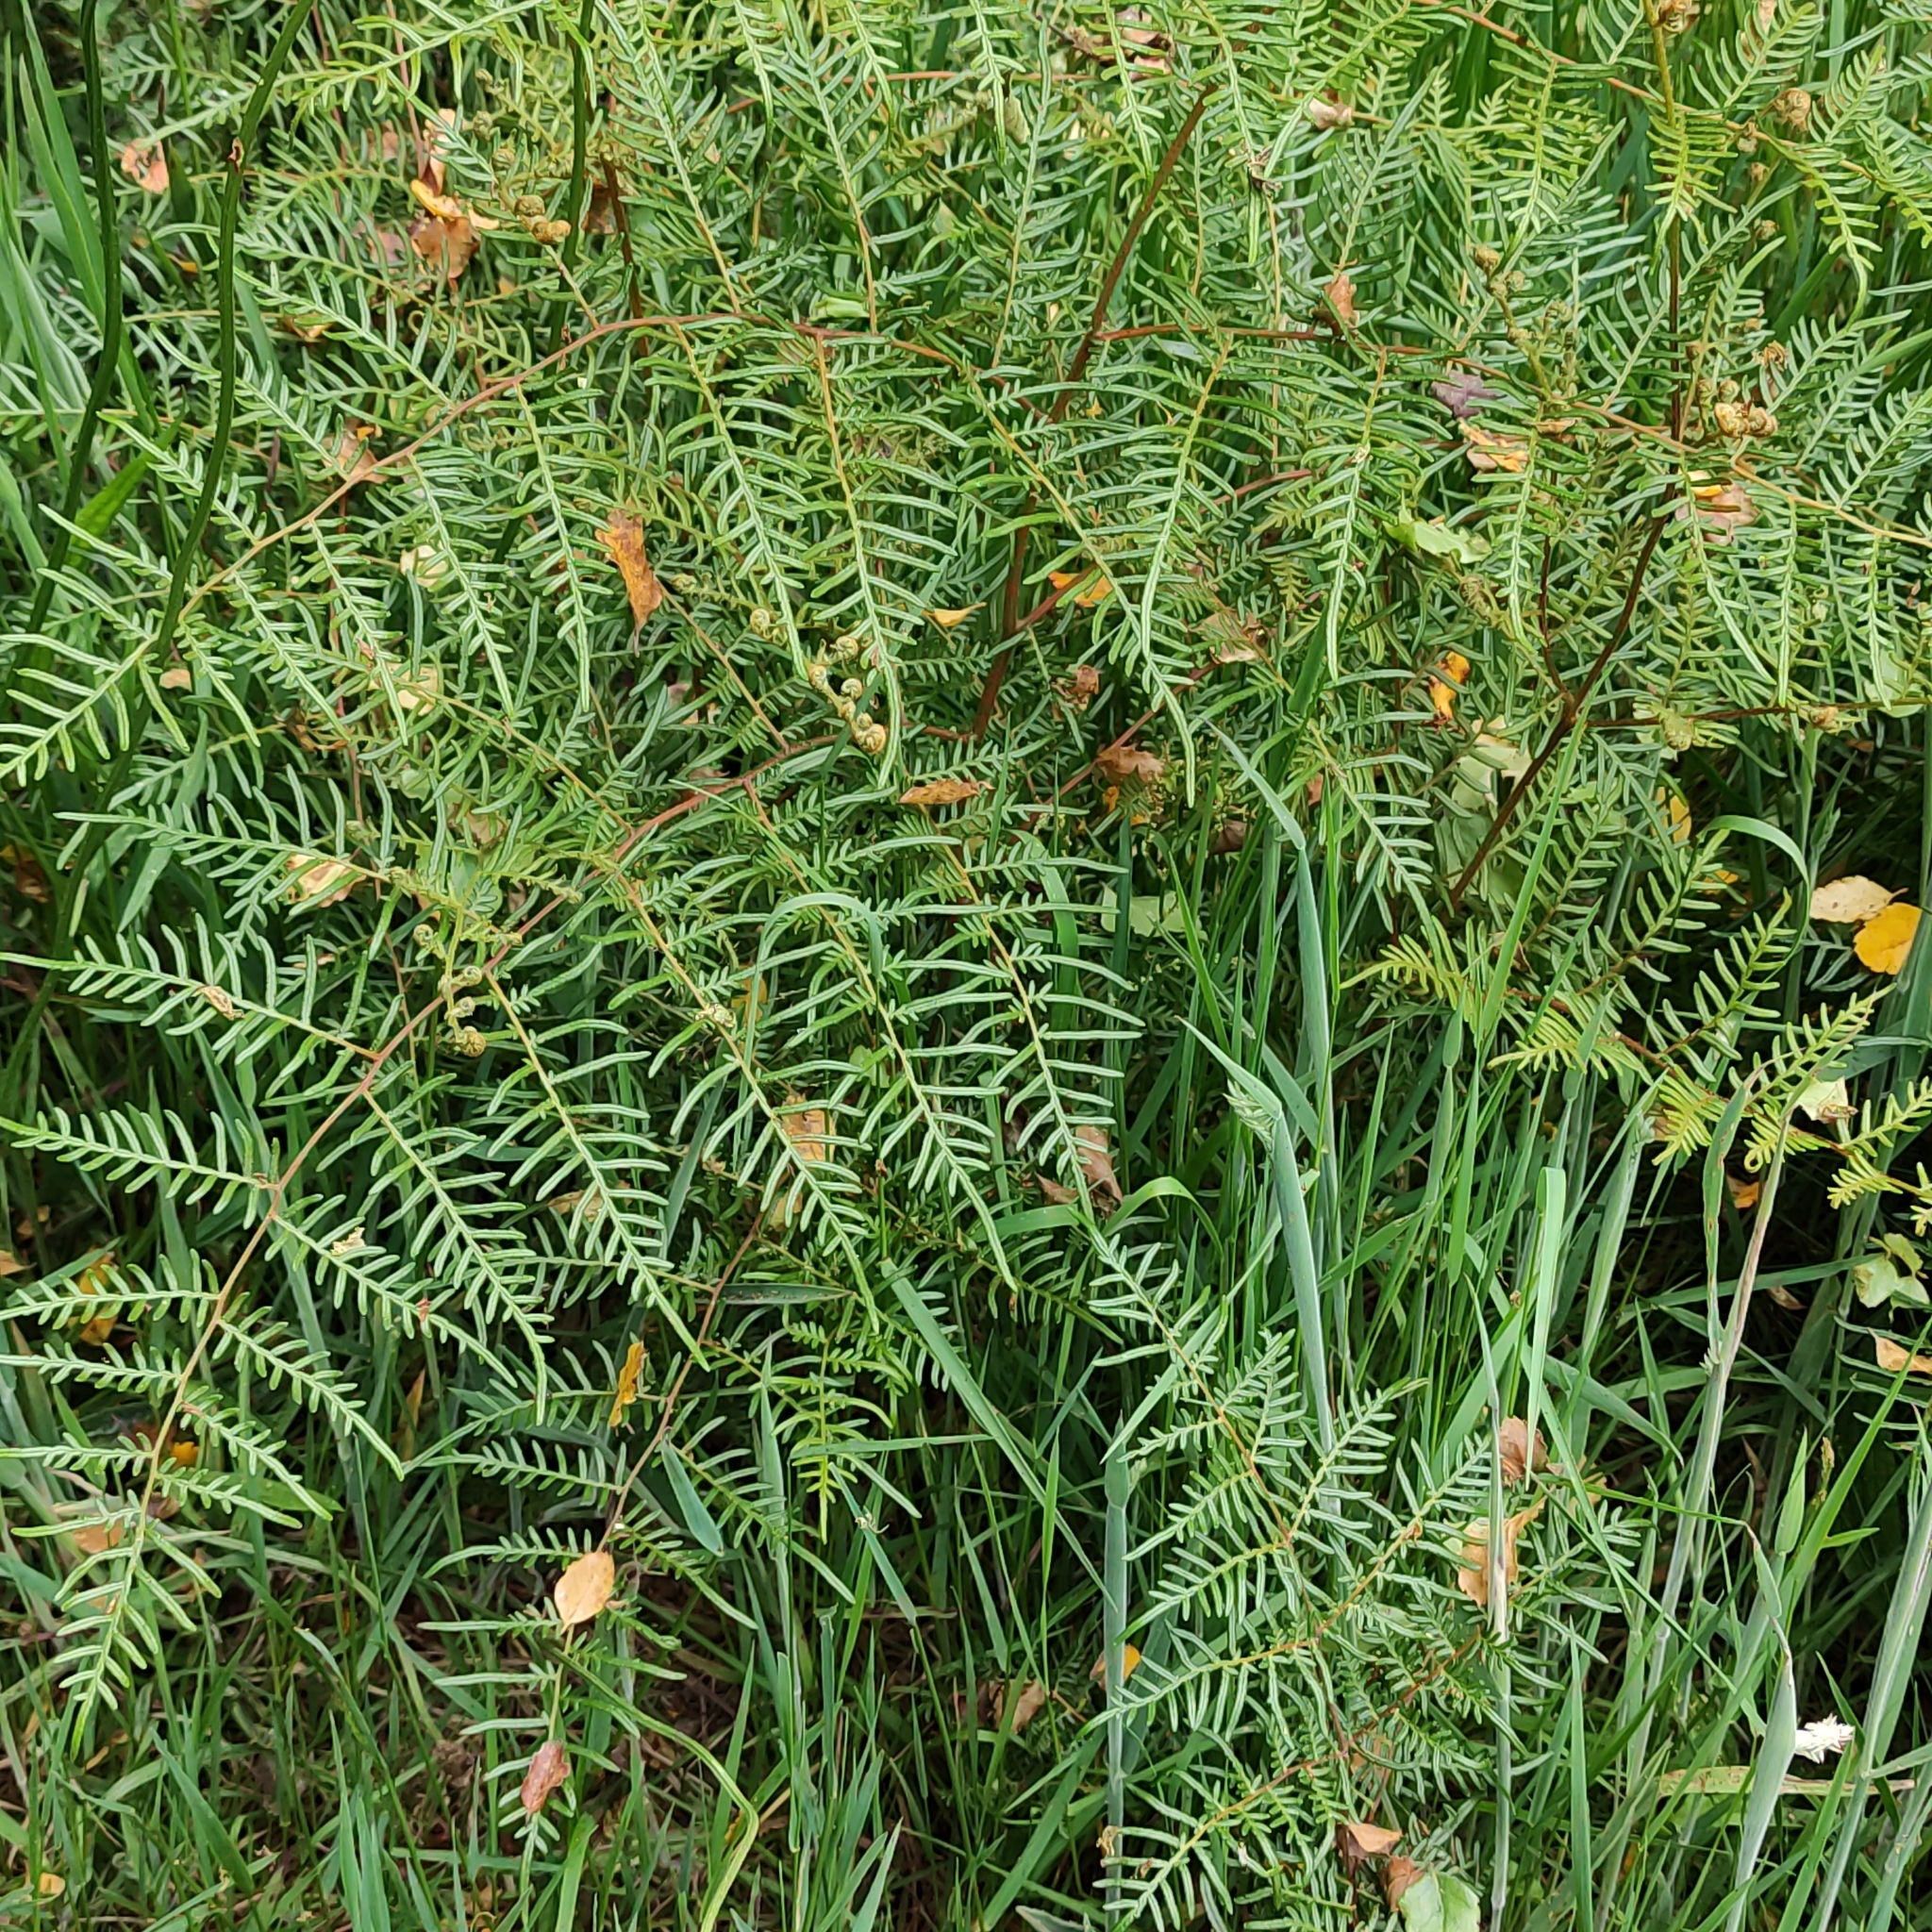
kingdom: Plantae
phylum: Tracheophyta
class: Polypodiopsida
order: Polypodiales
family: Dennstaedtiaceae
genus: Pteridium
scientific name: Pteridium esculentum
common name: Bracken fern
